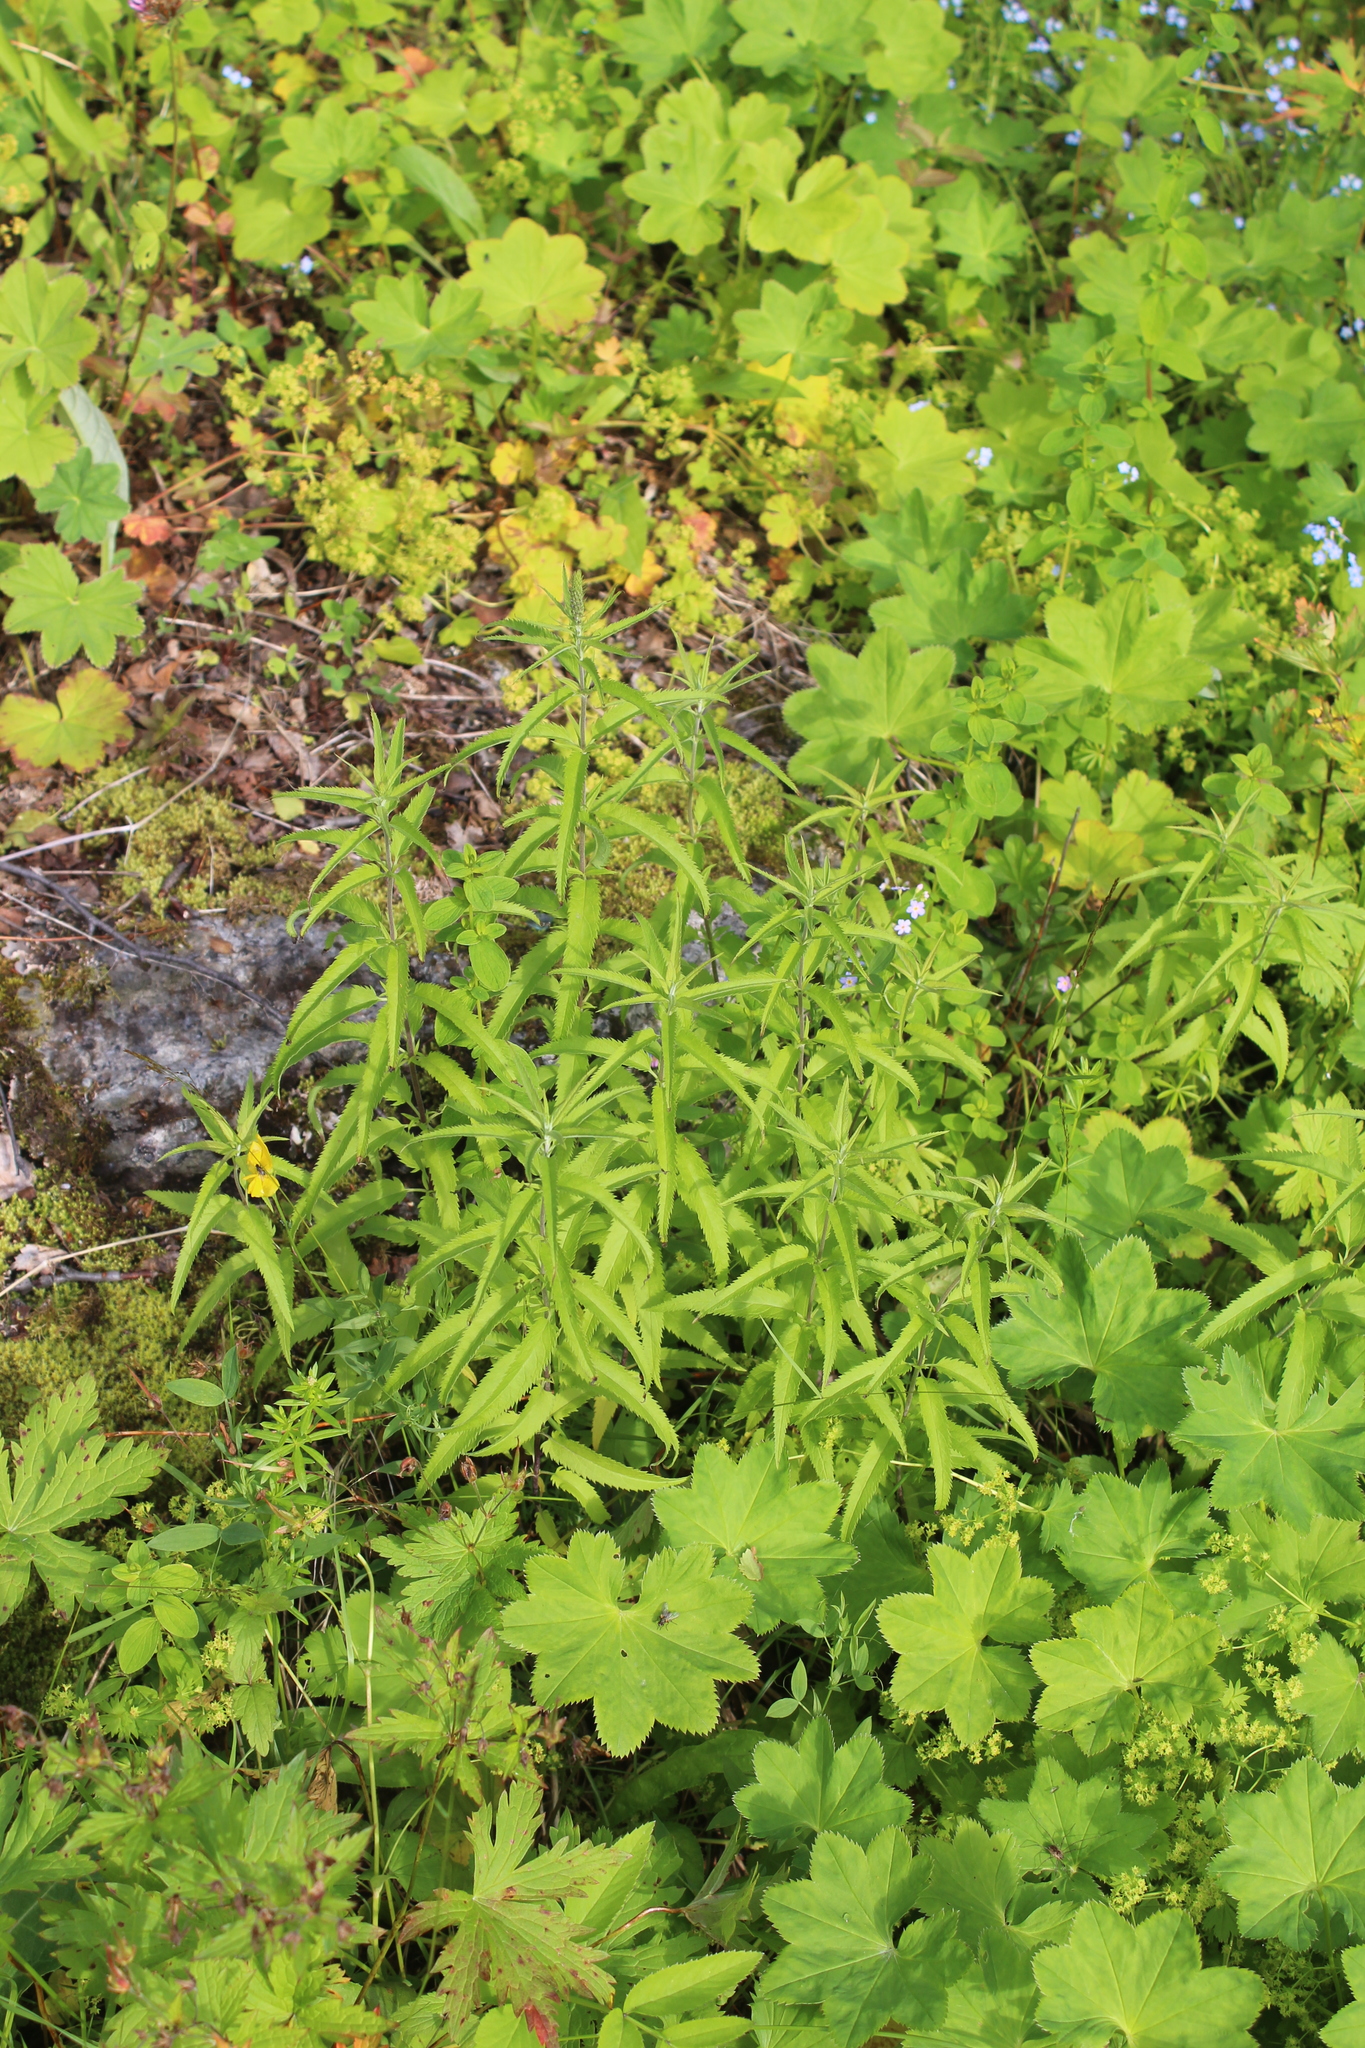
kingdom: Plantae
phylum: Tracheophyta
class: Magnoliopsida
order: Lamiales
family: Plantaginaceae
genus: Veronica
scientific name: Veronica longifolia
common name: Garden speedwell
